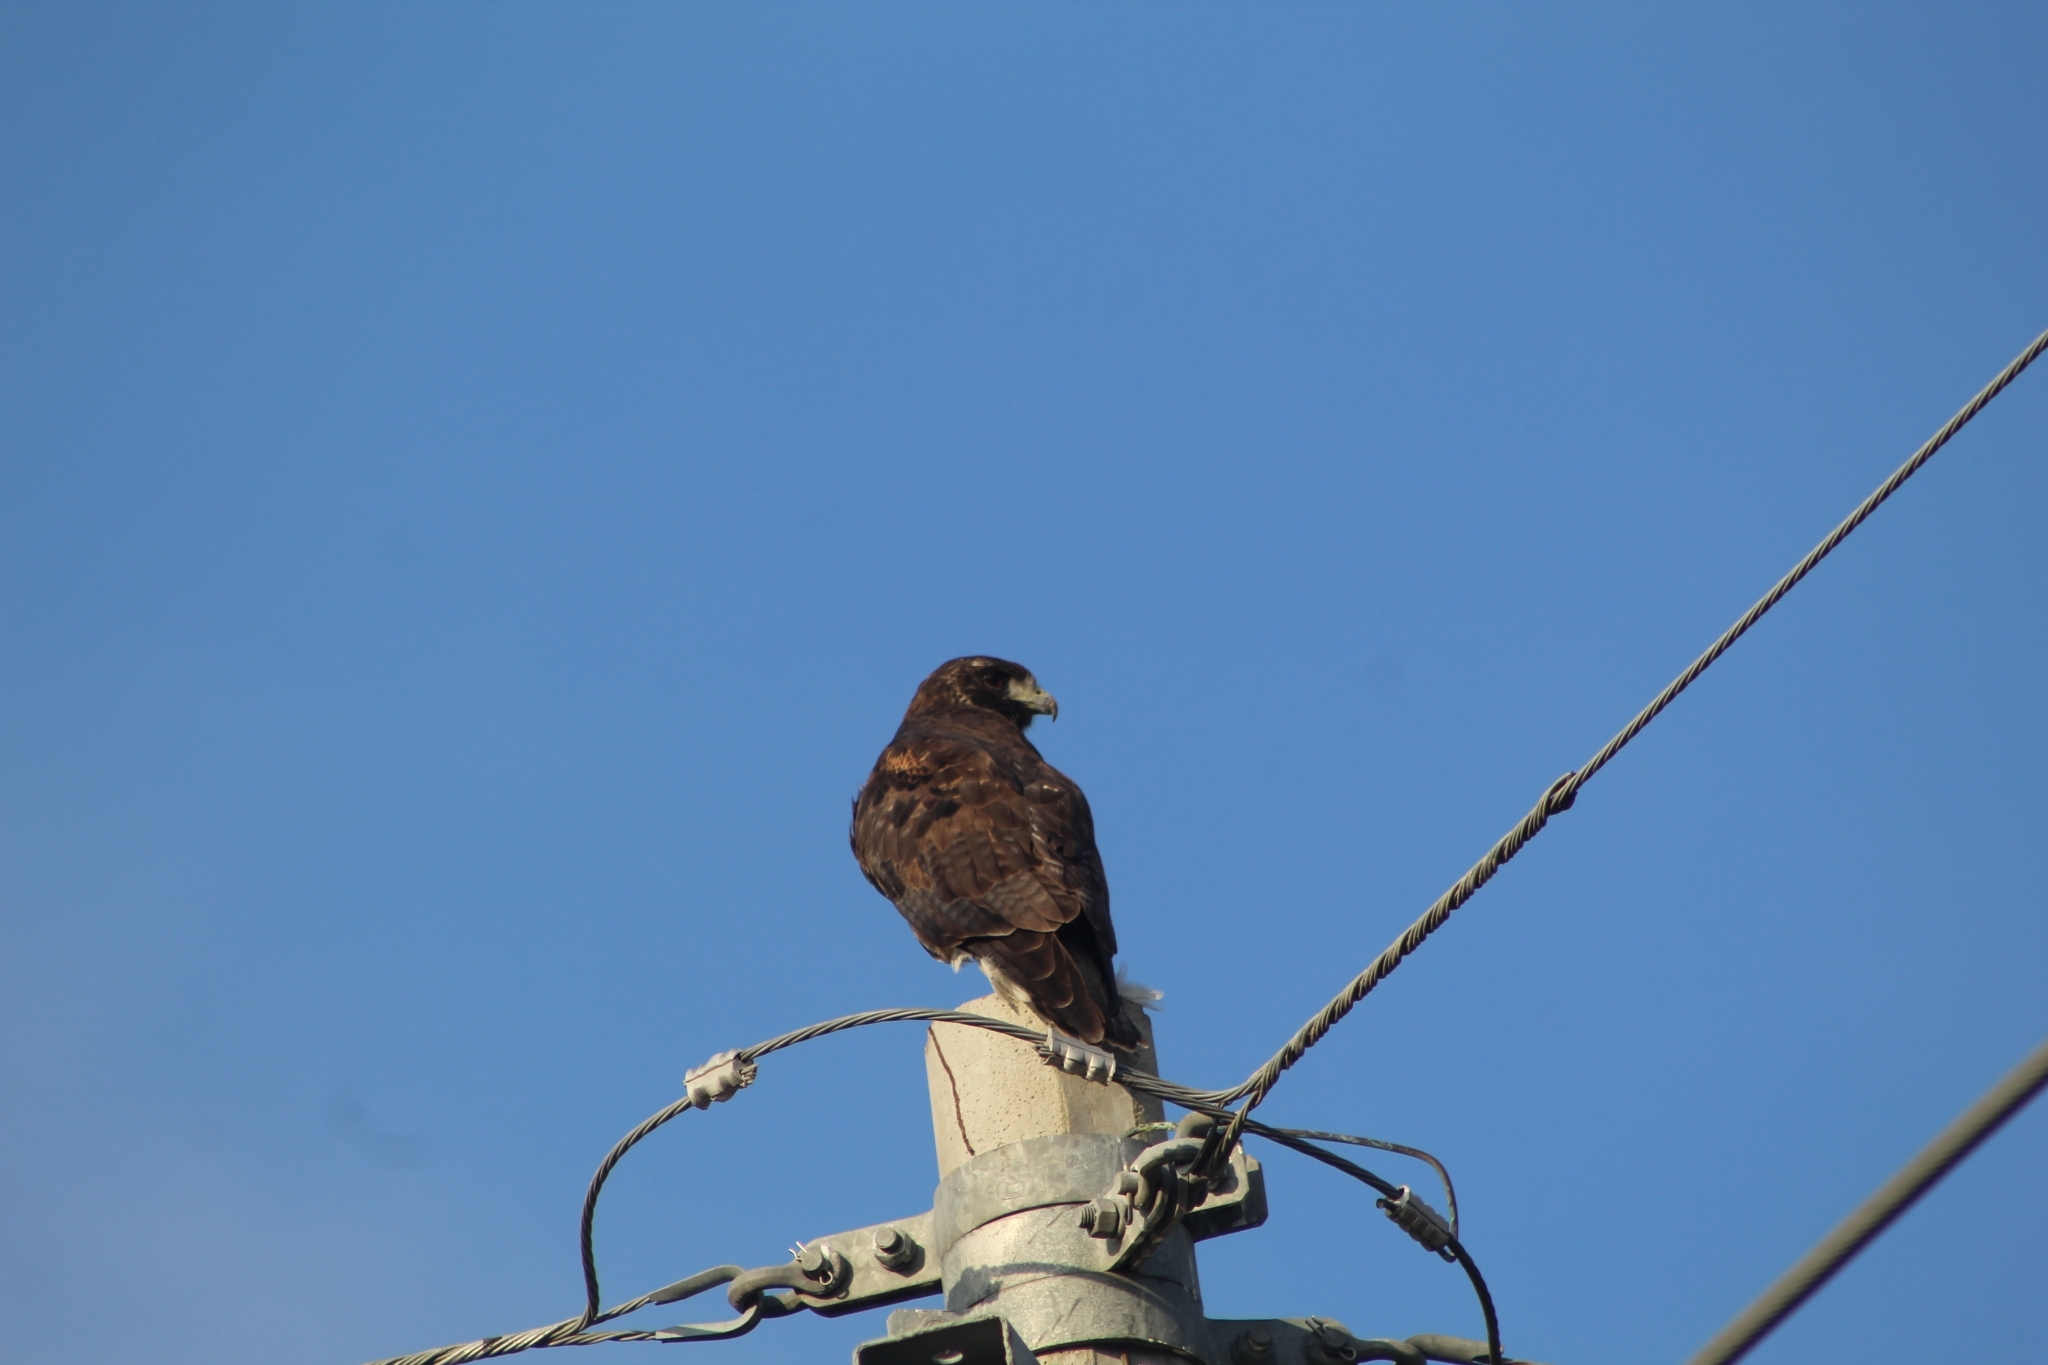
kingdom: Animalia
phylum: Chordata
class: Aves
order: Accipitriformes
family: Accipitridae
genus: Buteo
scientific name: Buteo albicaudatus
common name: White-tailed hawk
